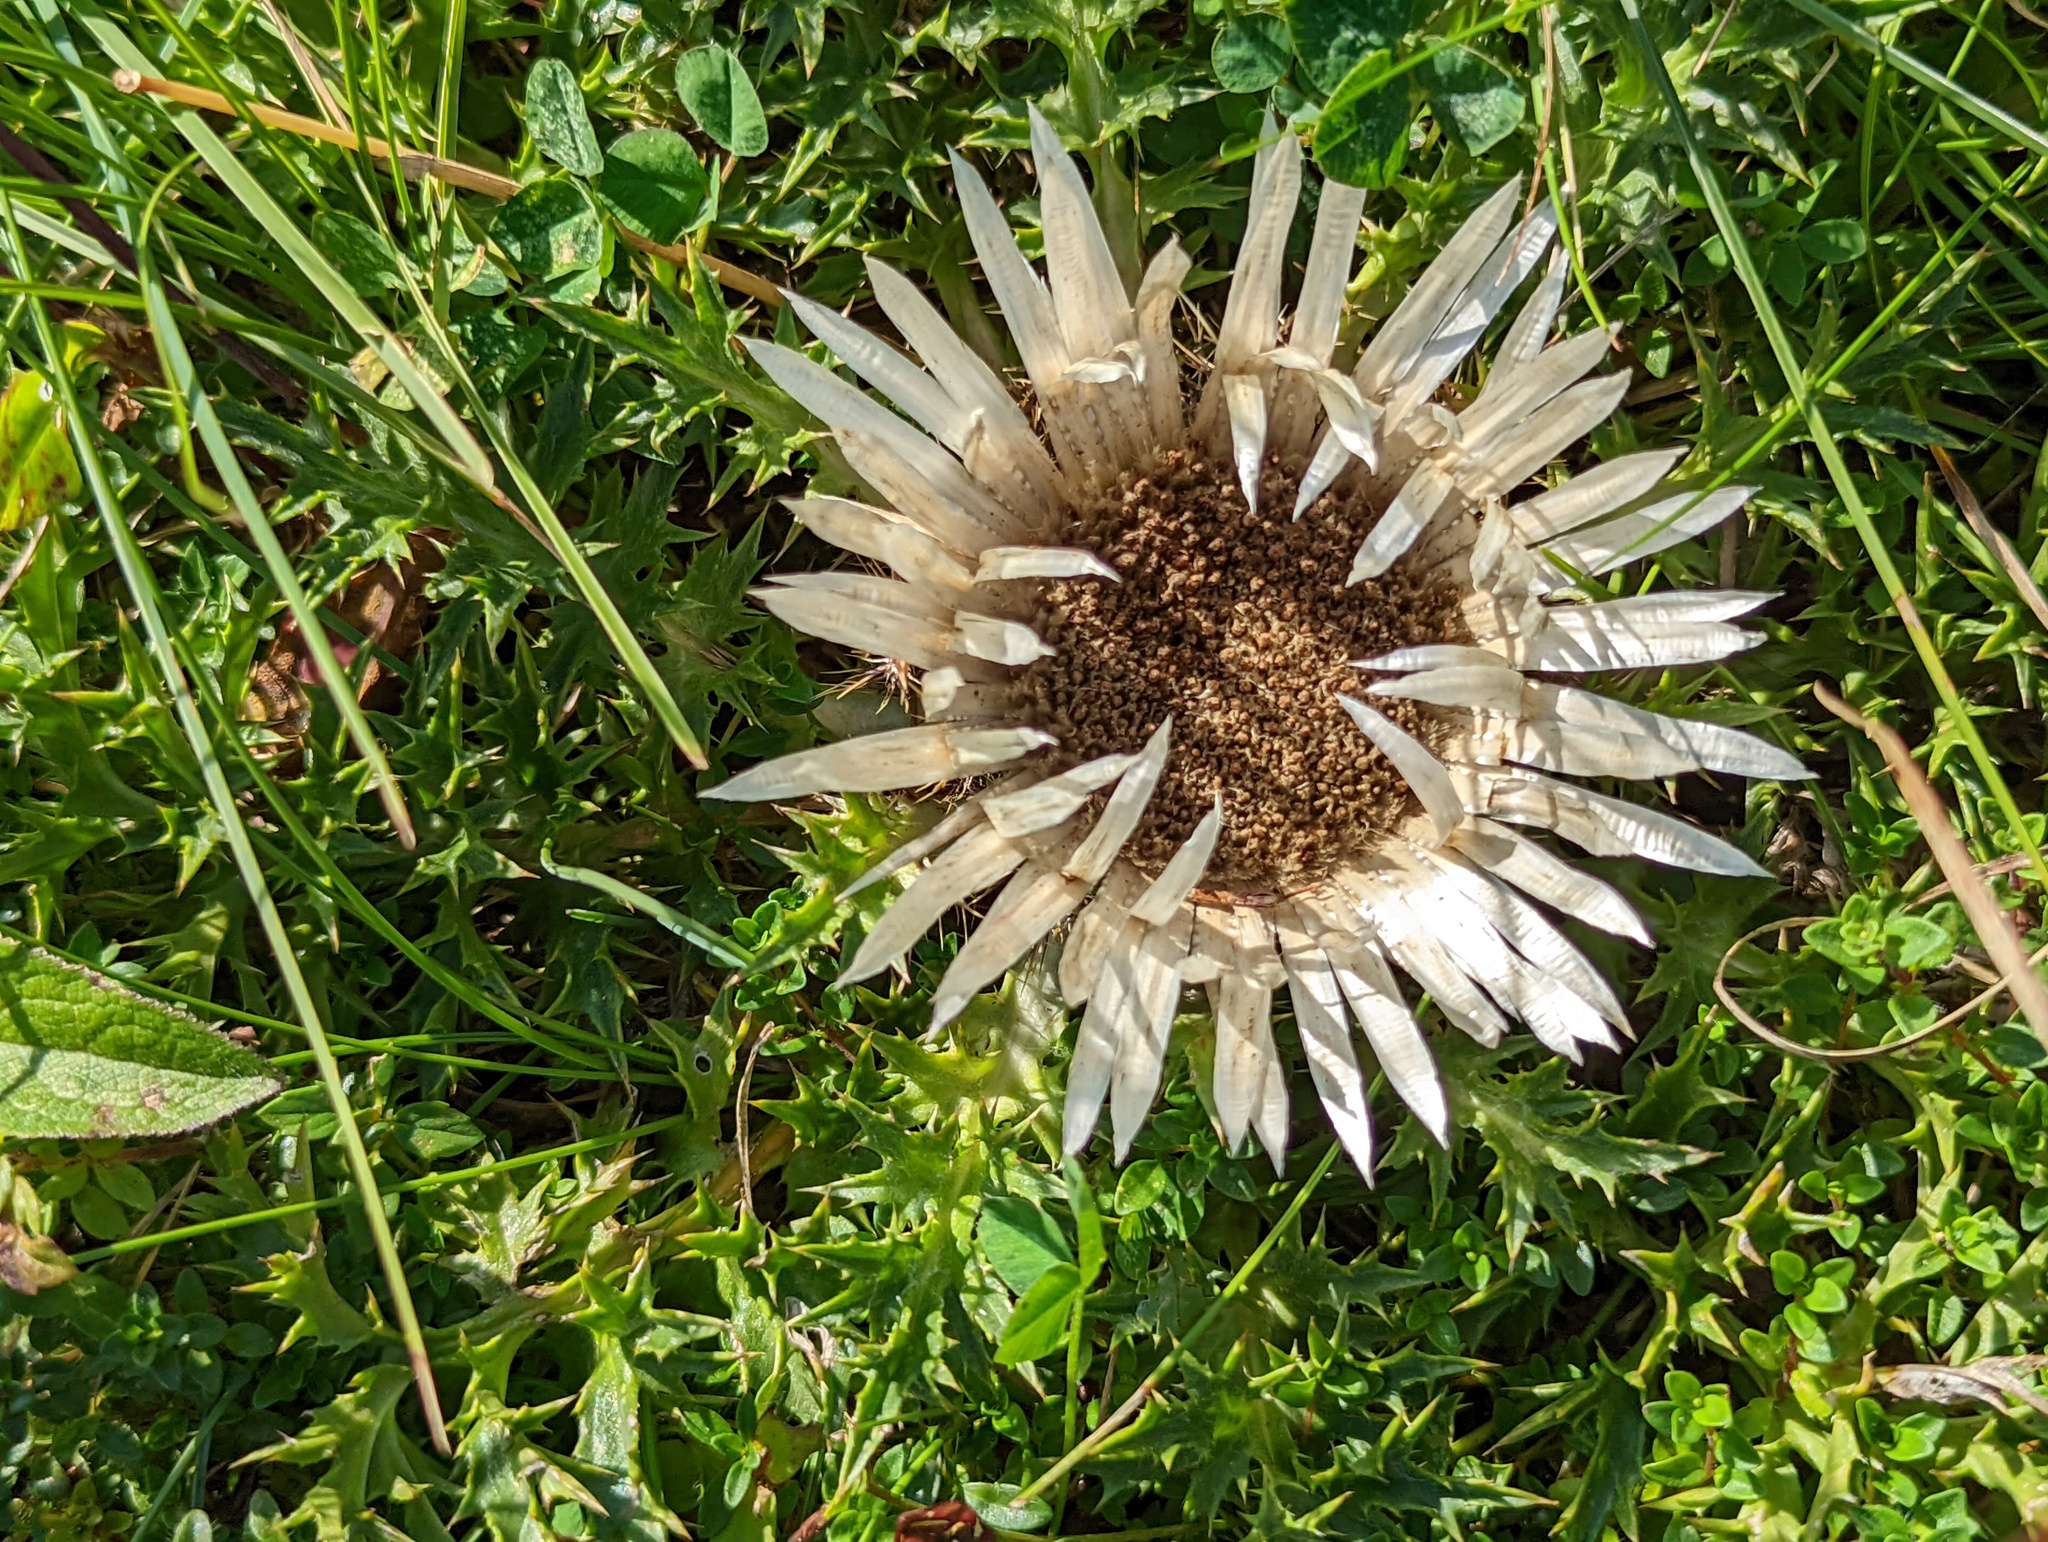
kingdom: Plantae
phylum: Tracheophyta
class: Magnoliopsida
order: Asterales
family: Asteraceae
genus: Carlina
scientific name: Carlina acaulis
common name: Stemless carline thistle
